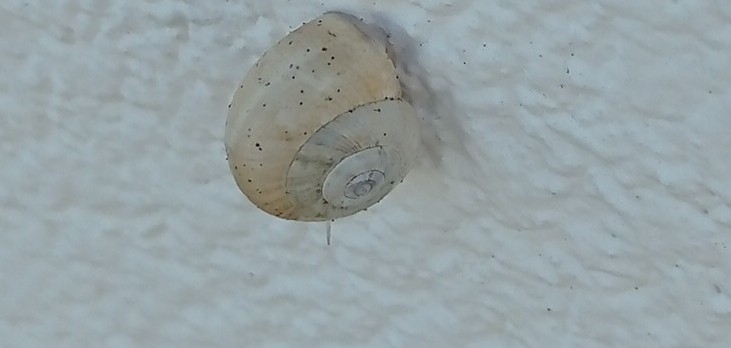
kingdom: Animalia
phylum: Mollusca
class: Gastropoda
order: Stylommatophora
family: Helicidae
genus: Theba
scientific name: Theba pisana
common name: White snail
